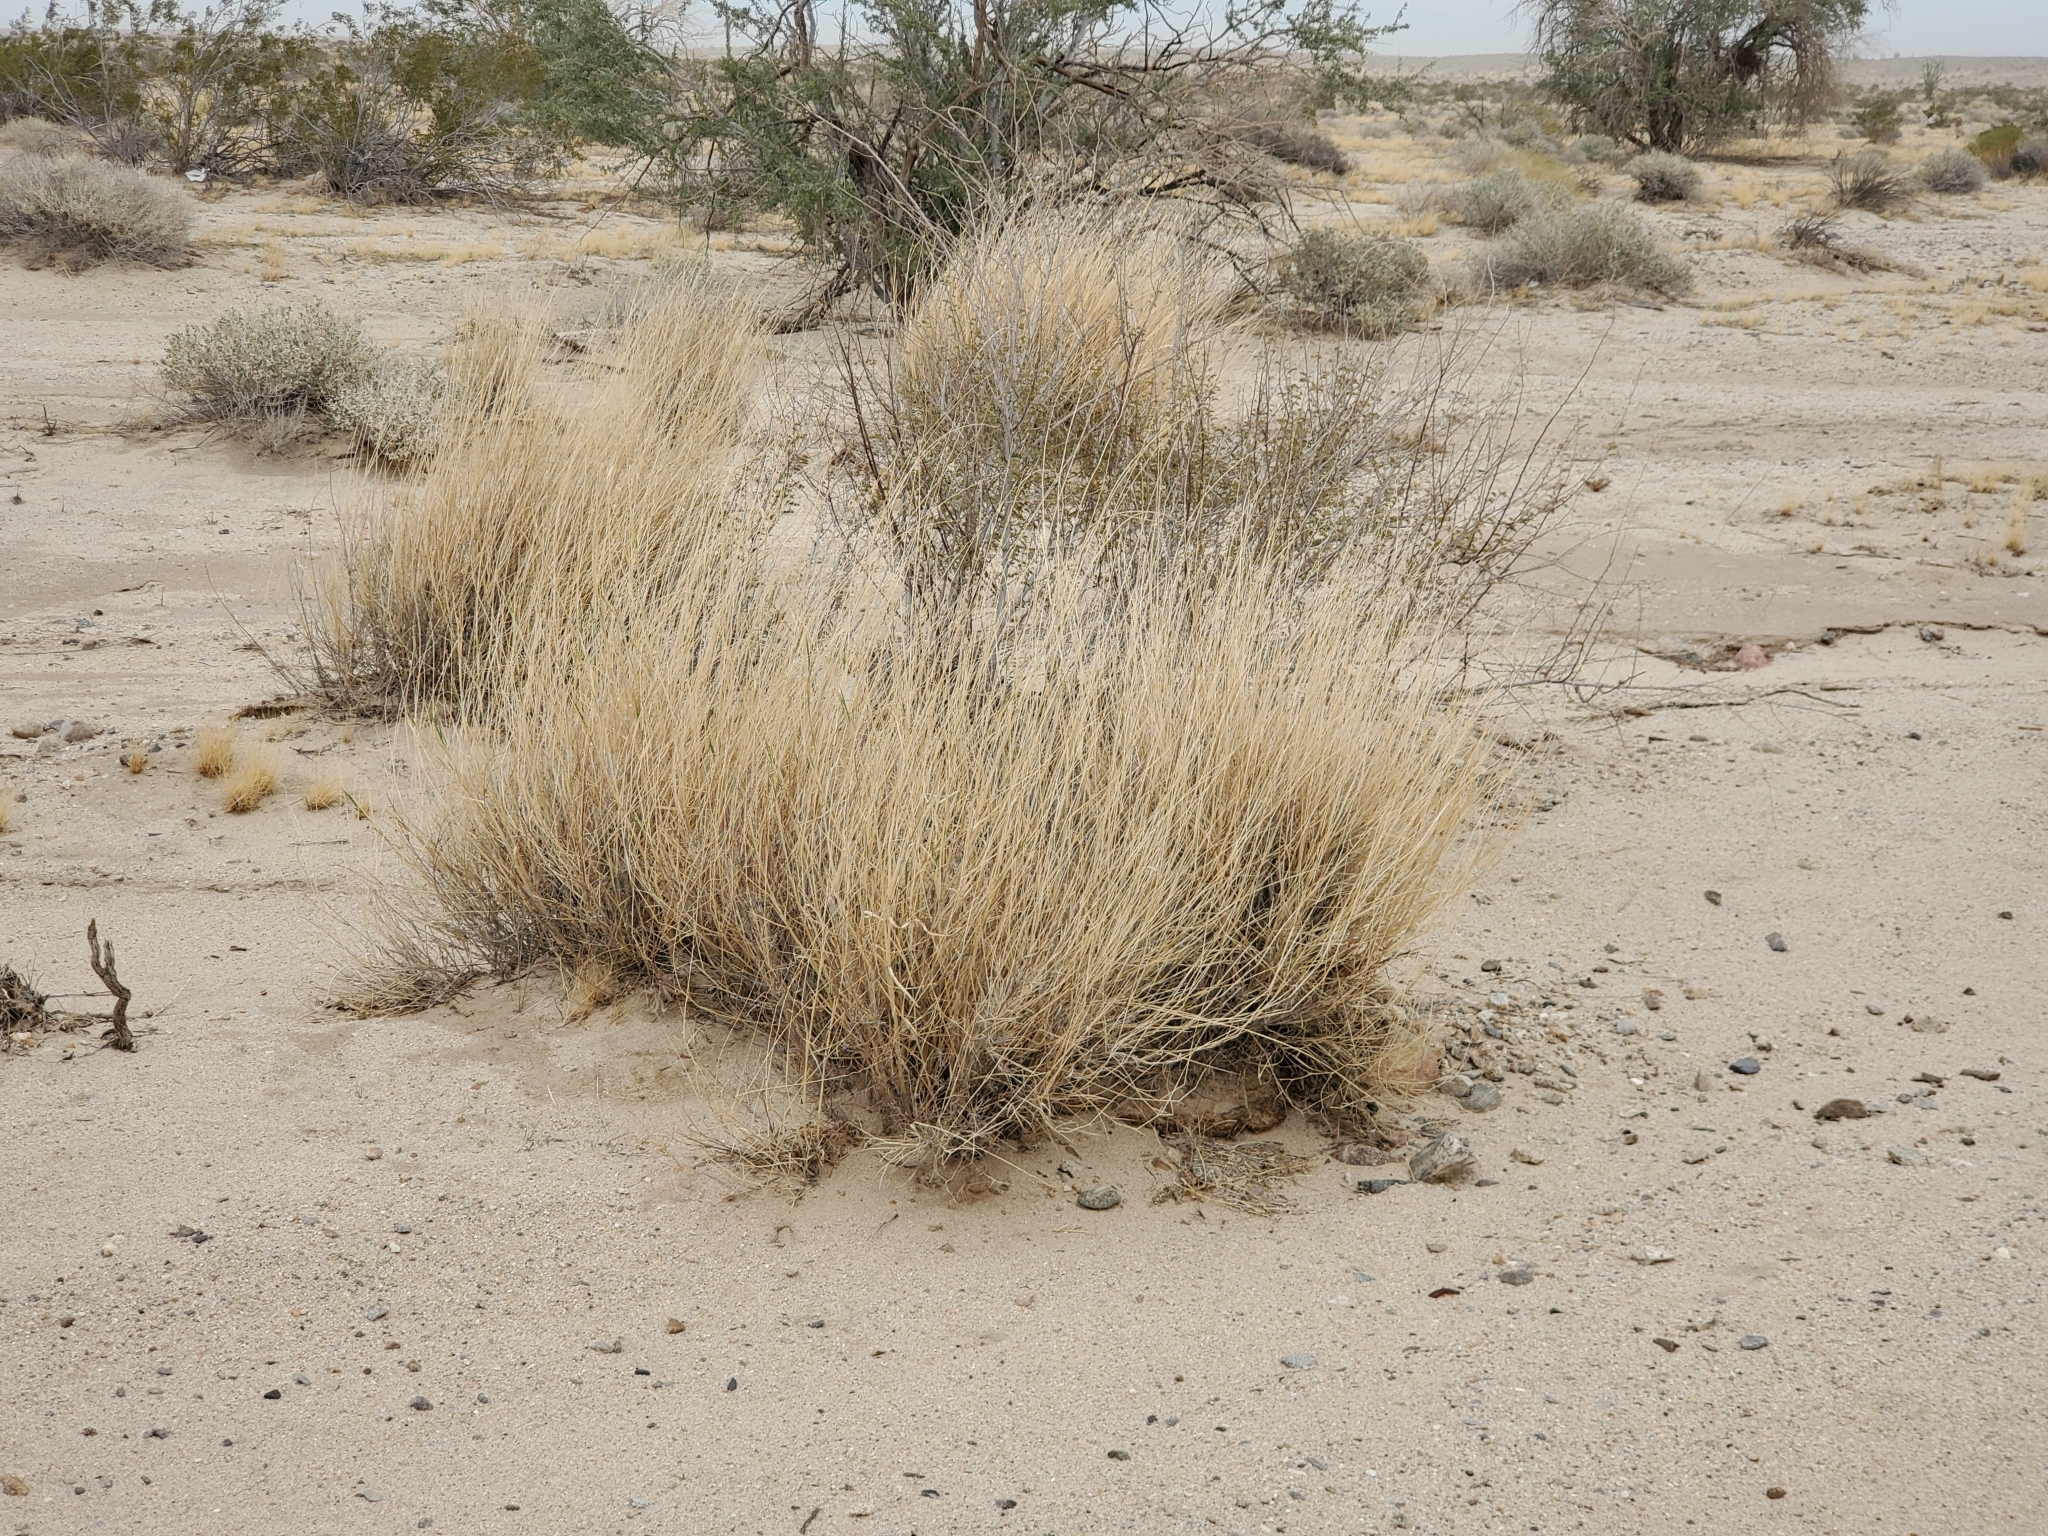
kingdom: Plantae
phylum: Tracheophyta
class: Liliopsida
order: Poales
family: Poaceae
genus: Hilaria
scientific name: Hilaria rigida
